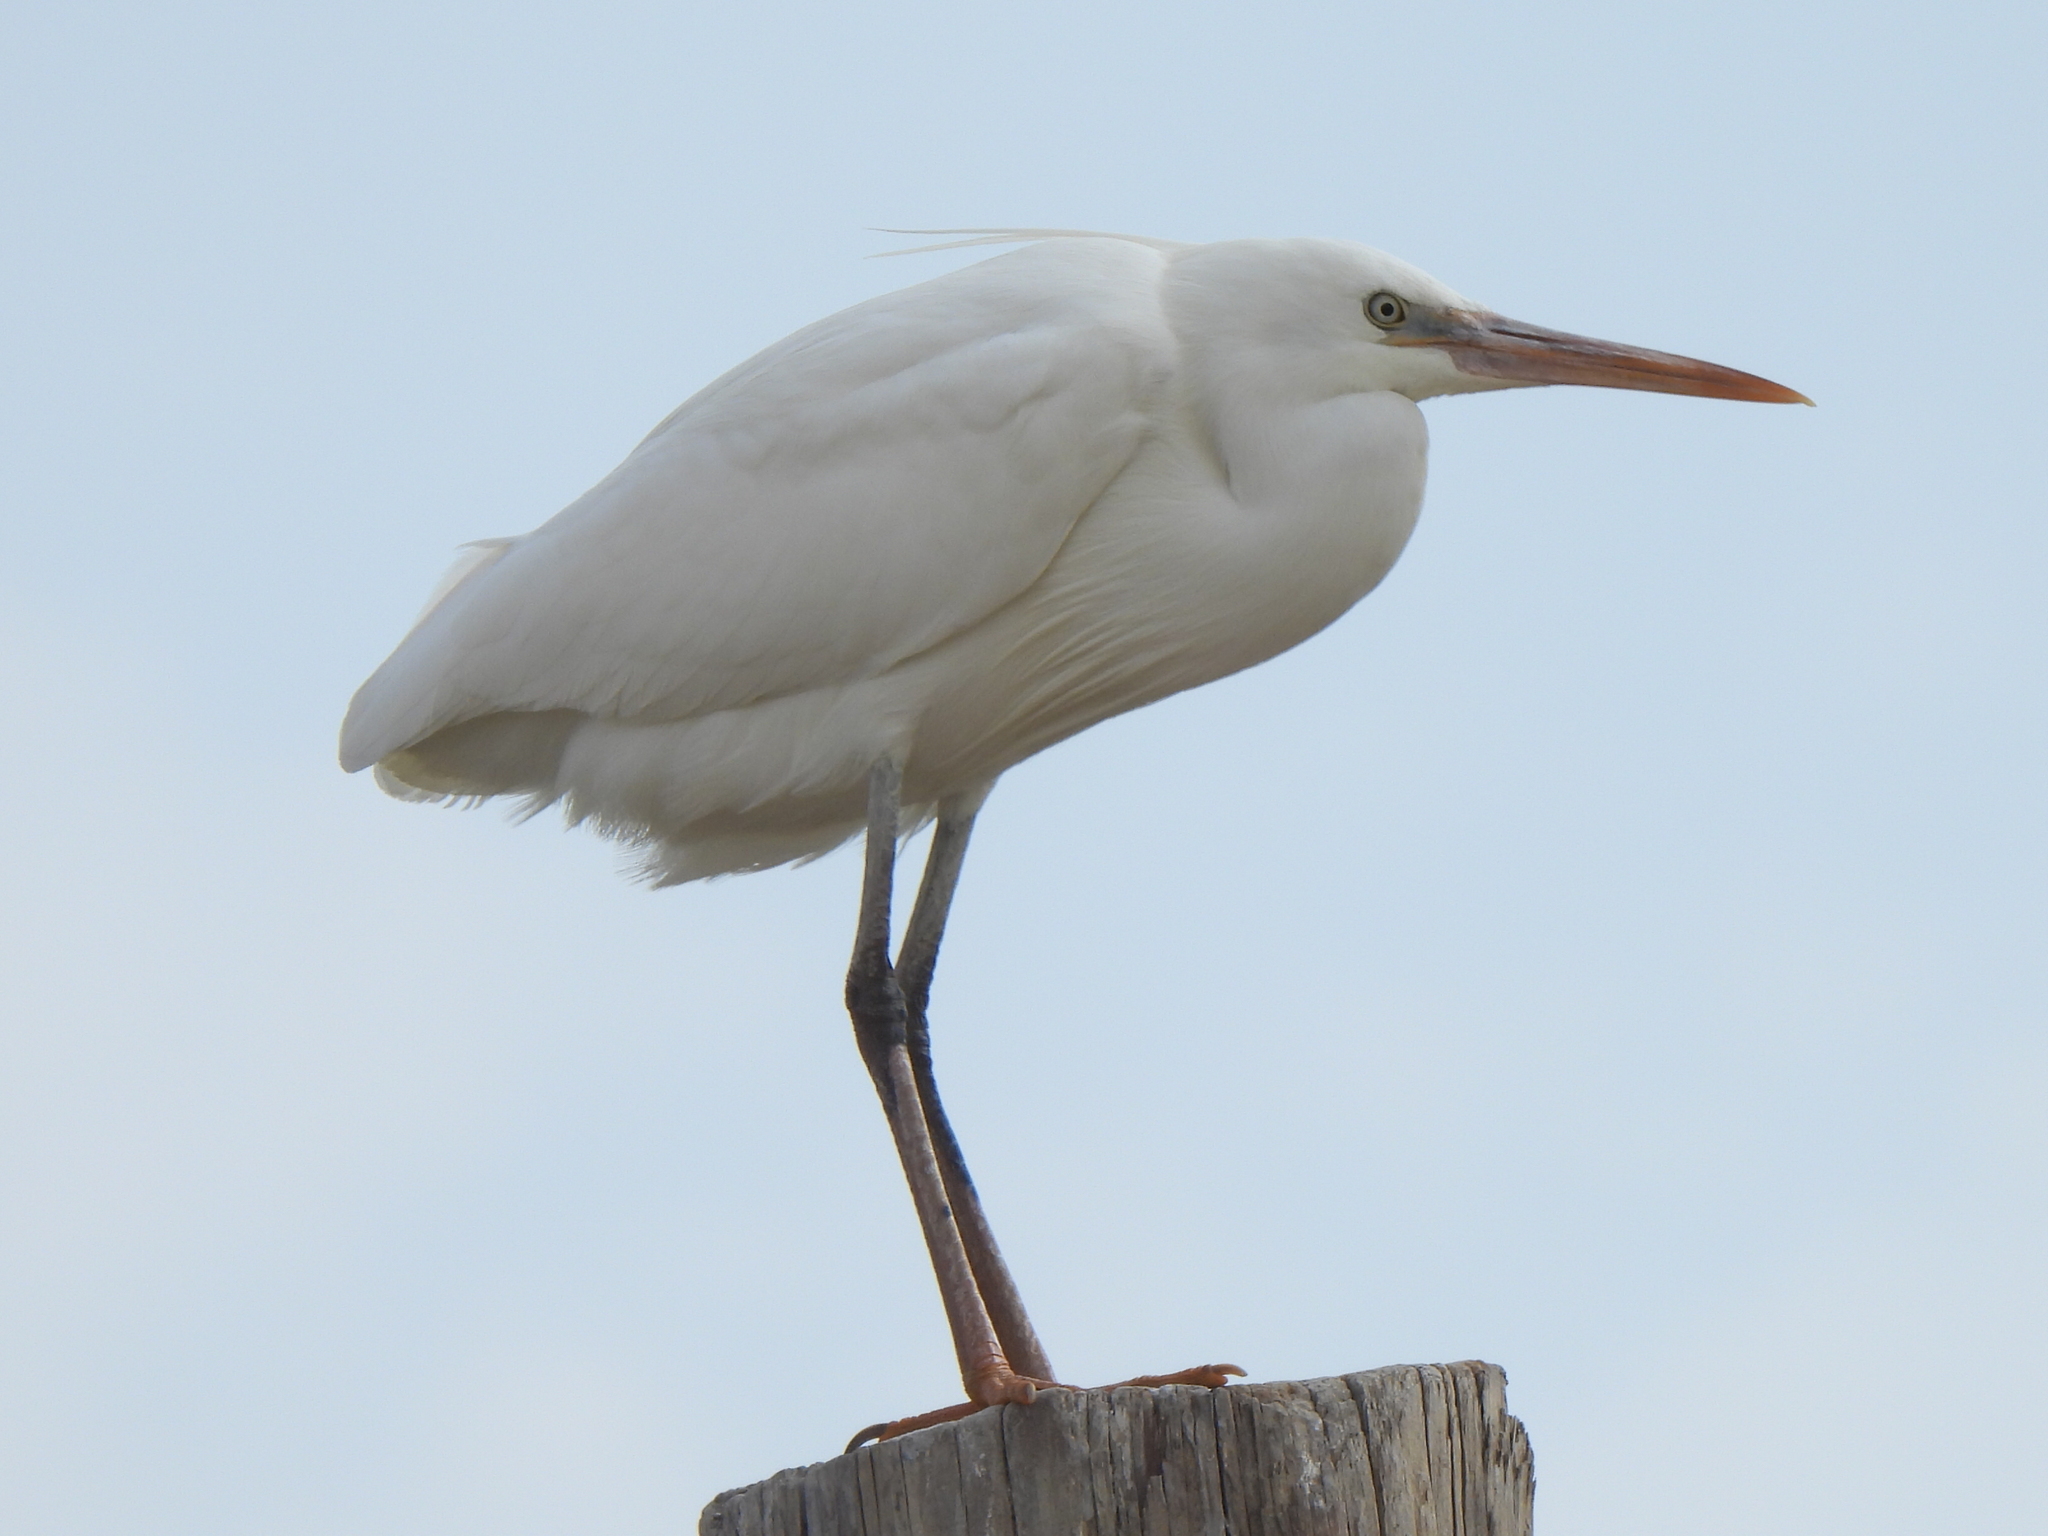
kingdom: Animalia
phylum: Chordata
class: Aves
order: Pelecaniformes
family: Ardeidae
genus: Egretta
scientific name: Egretta gularis
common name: Western reef-heron
